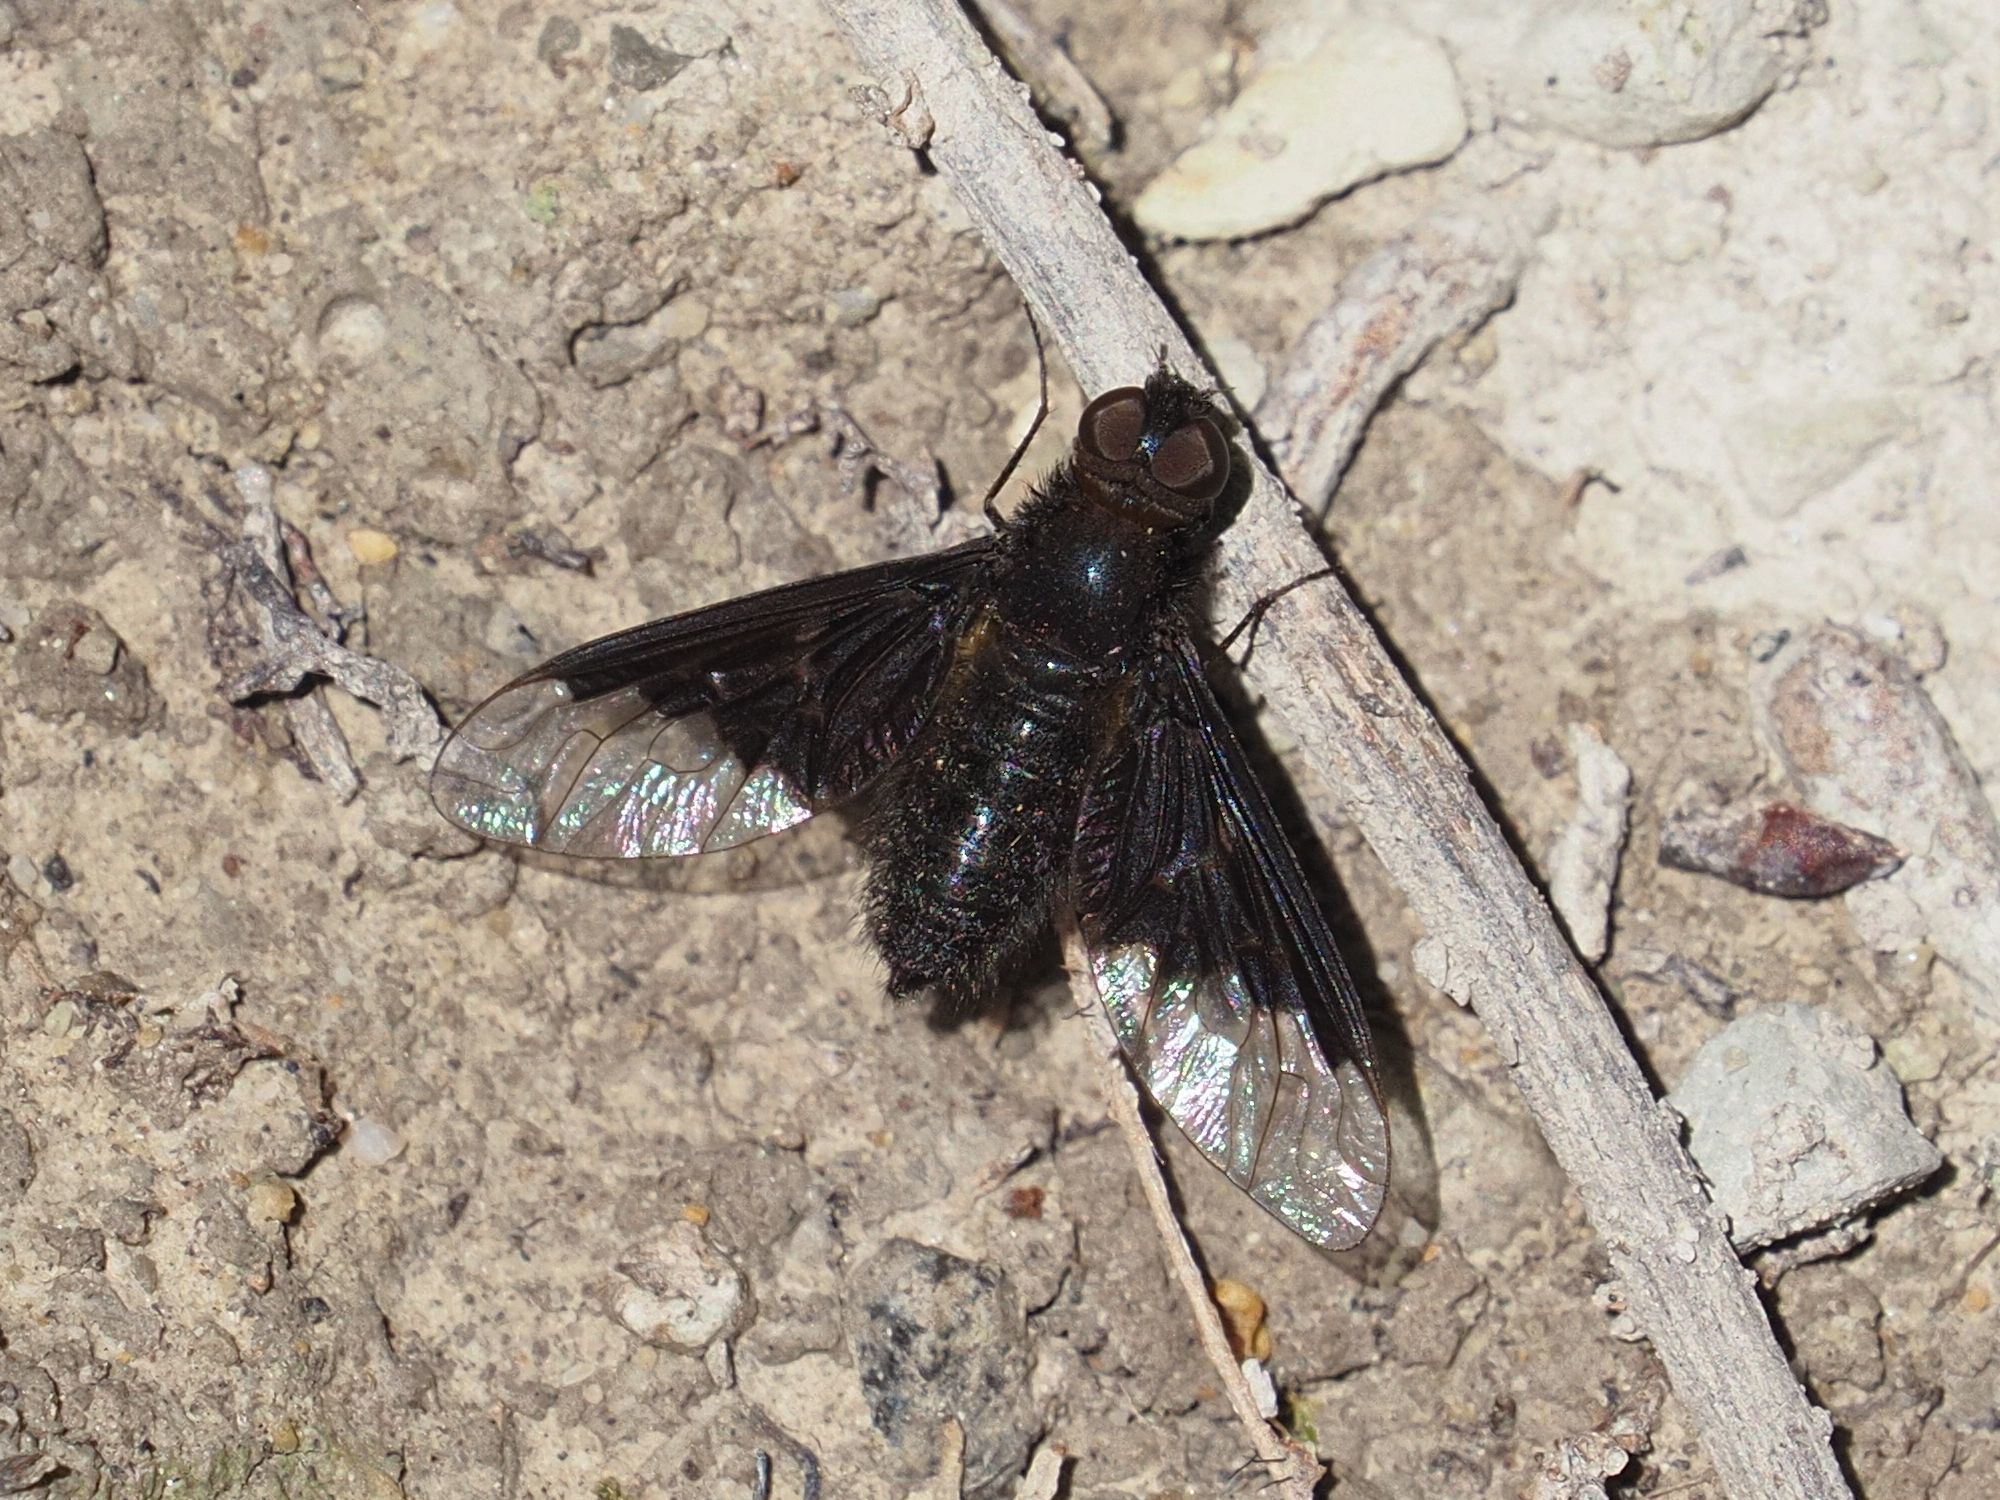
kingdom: Animalia
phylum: Arthropoda
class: Insecta
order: Diptera
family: Bombyliidae
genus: Hemipenthes
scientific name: Hemipenthes morio
